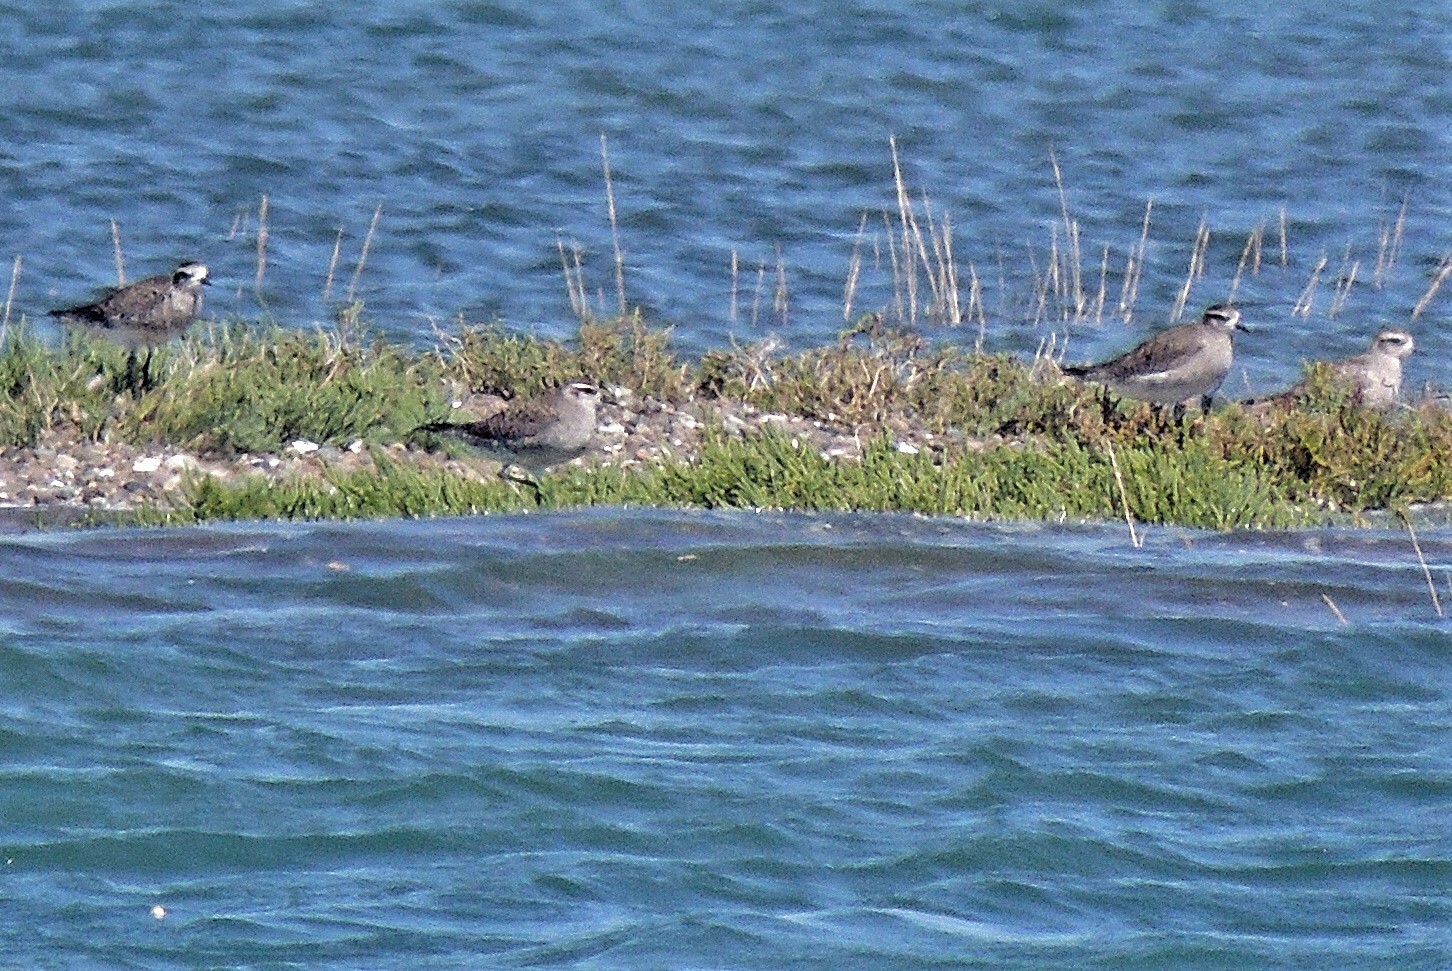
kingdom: Animalia
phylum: Chordata
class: Aves
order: Charadriiformes
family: Charadriidae
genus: Pluvialis
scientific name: Pluvialis dominica
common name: American golden plover
